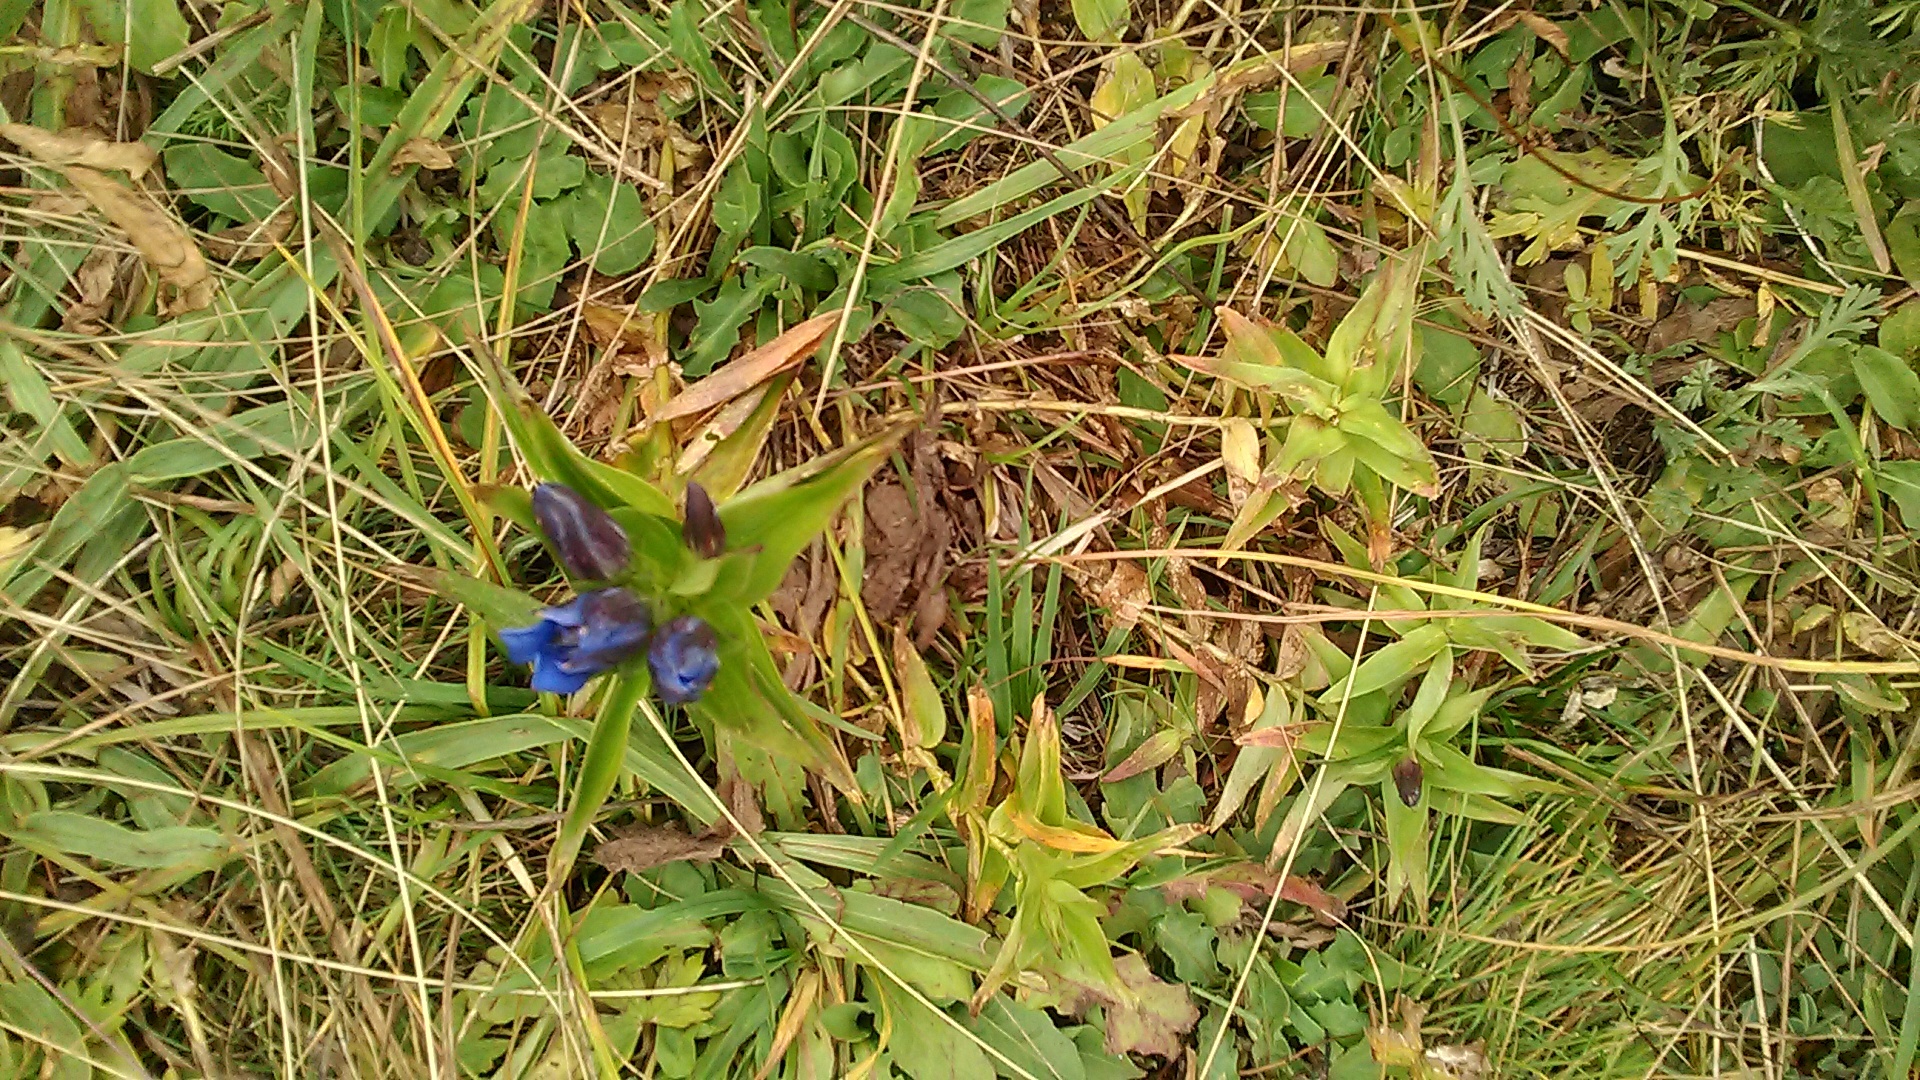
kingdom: Plantae
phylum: Tracheophyta
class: Magnoliopsida
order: Gentianales
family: Gentianaceae
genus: Gentiana
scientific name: Gentiana septemfida
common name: Crested gentian
